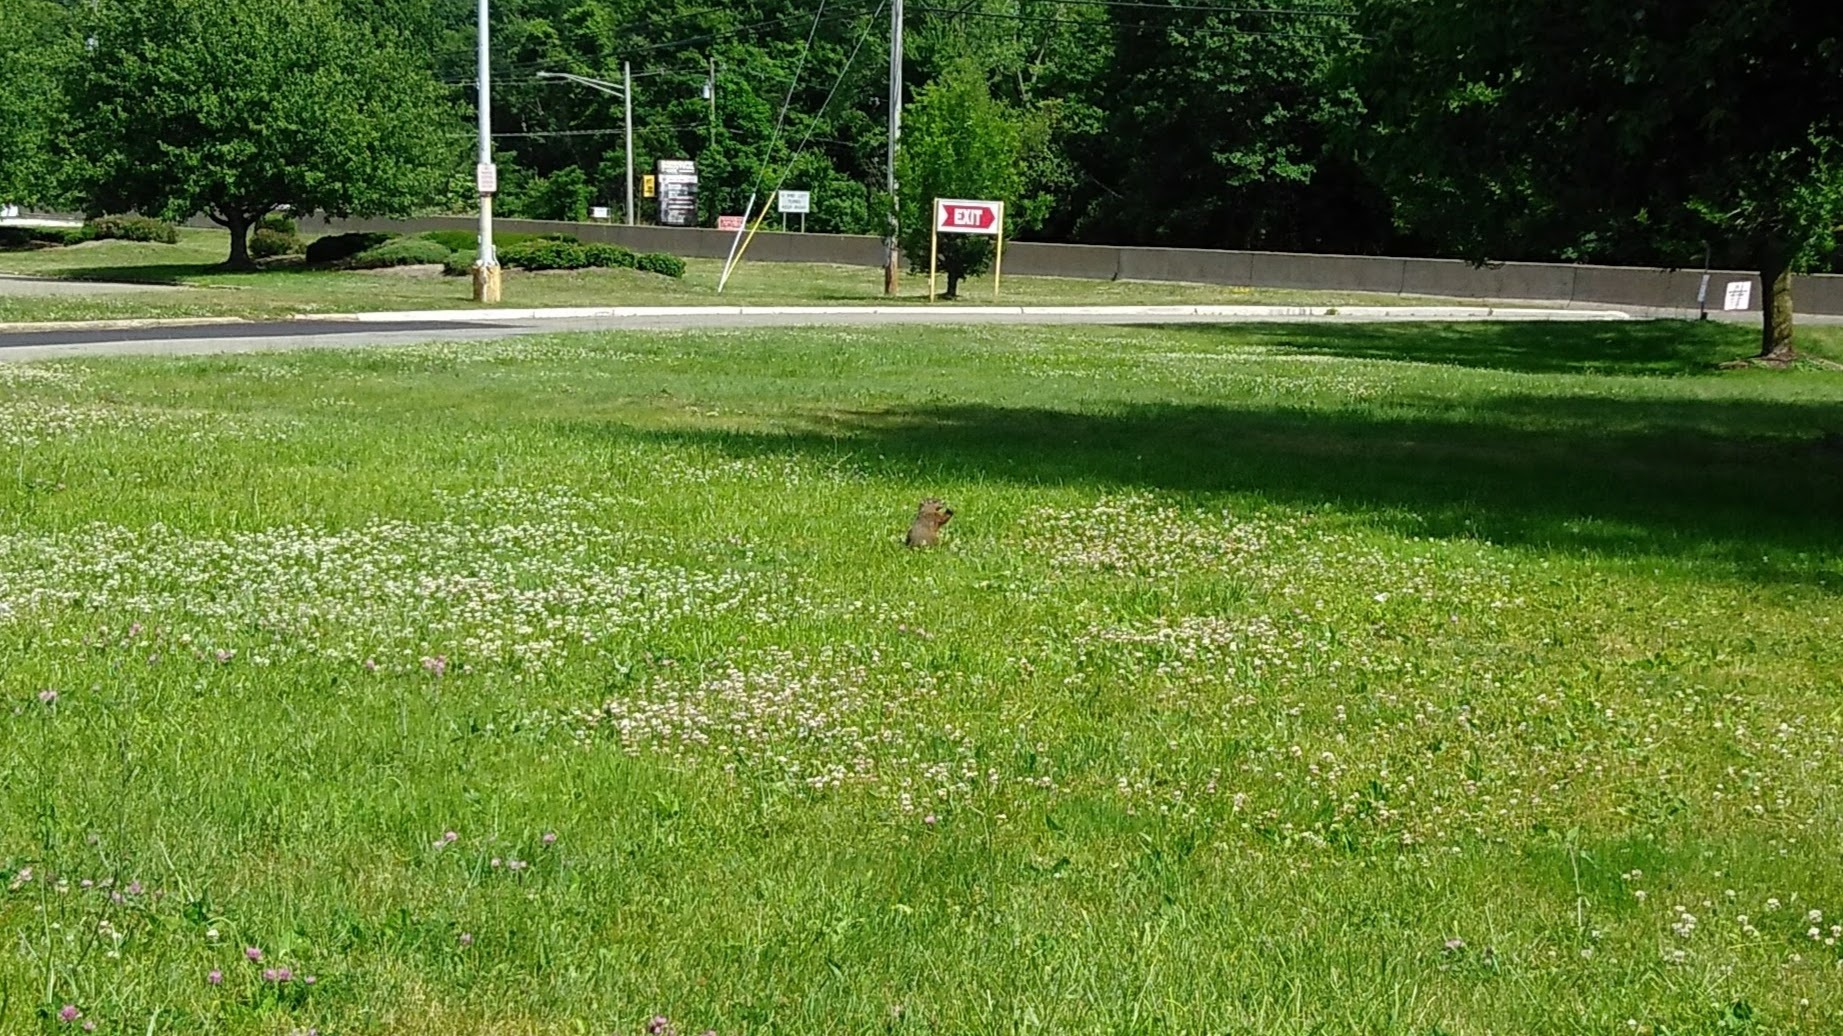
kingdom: Animalia
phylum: Chordata
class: Mammalia
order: Rodentia
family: Sciuridae
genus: Marmota
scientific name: Marmota monax
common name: Groundhog
